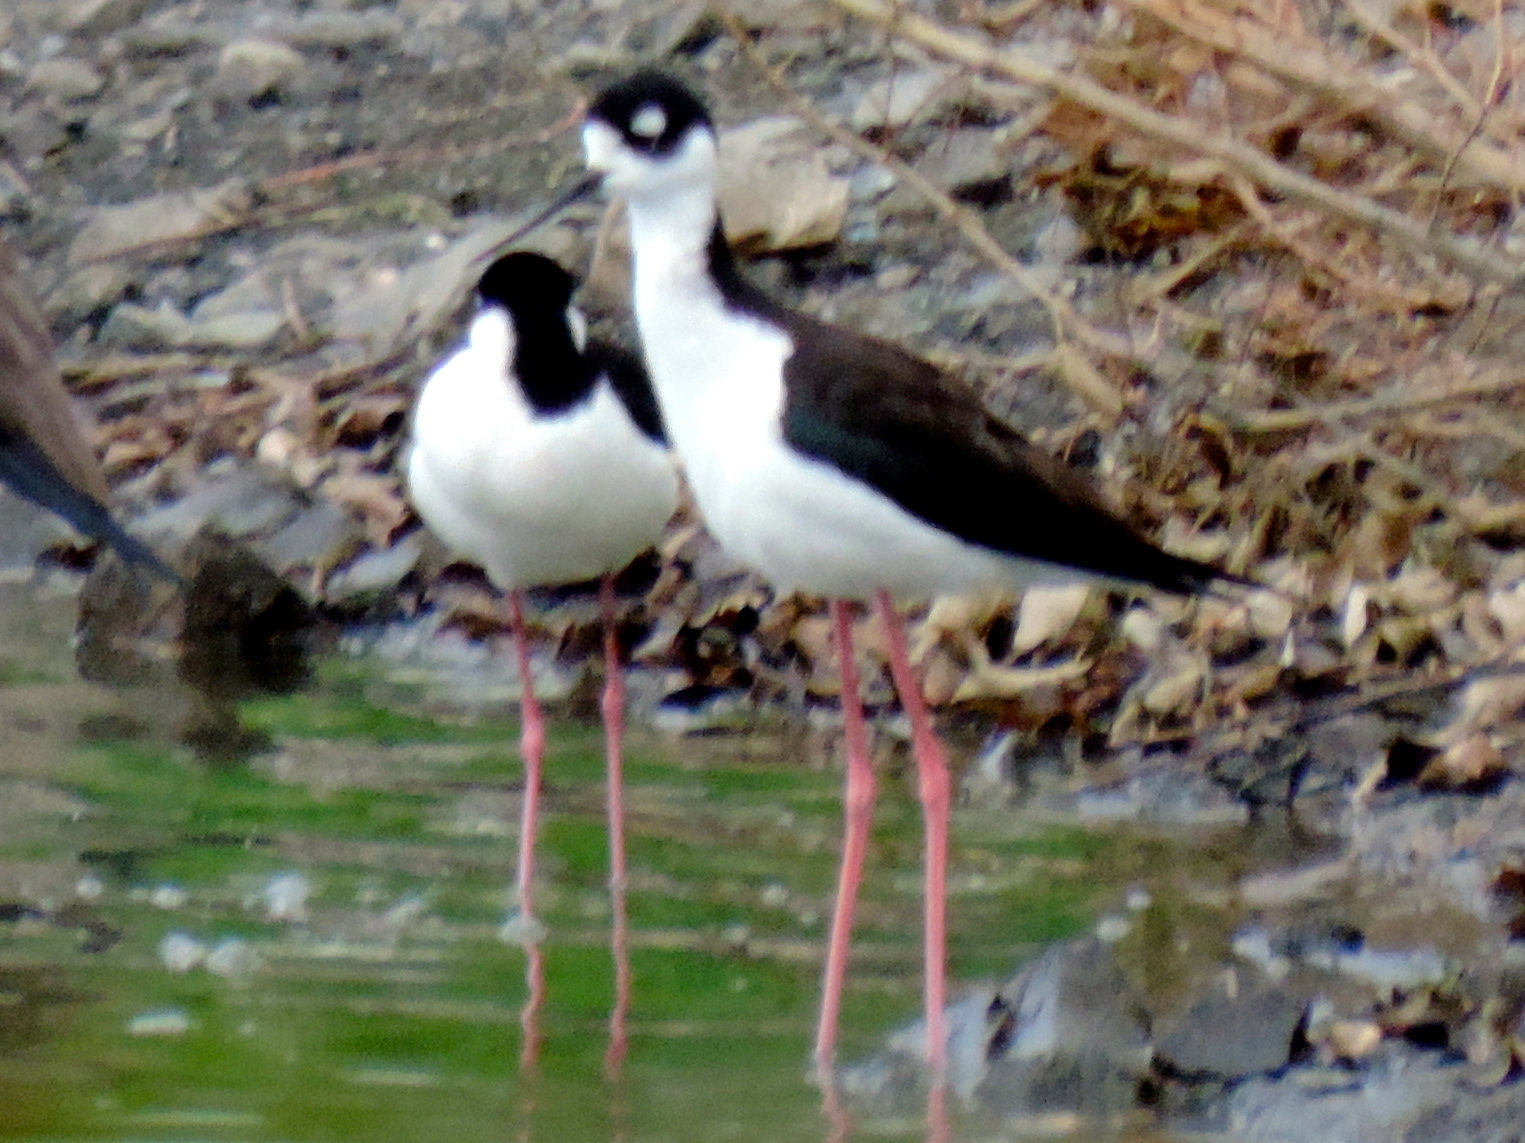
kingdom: Animalia
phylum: Chordata
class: Aves
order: Charadriiformes
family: Recurvirostridae
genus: Himantopus
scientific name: Himantopus mexicanus
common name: Black-necked stilt
